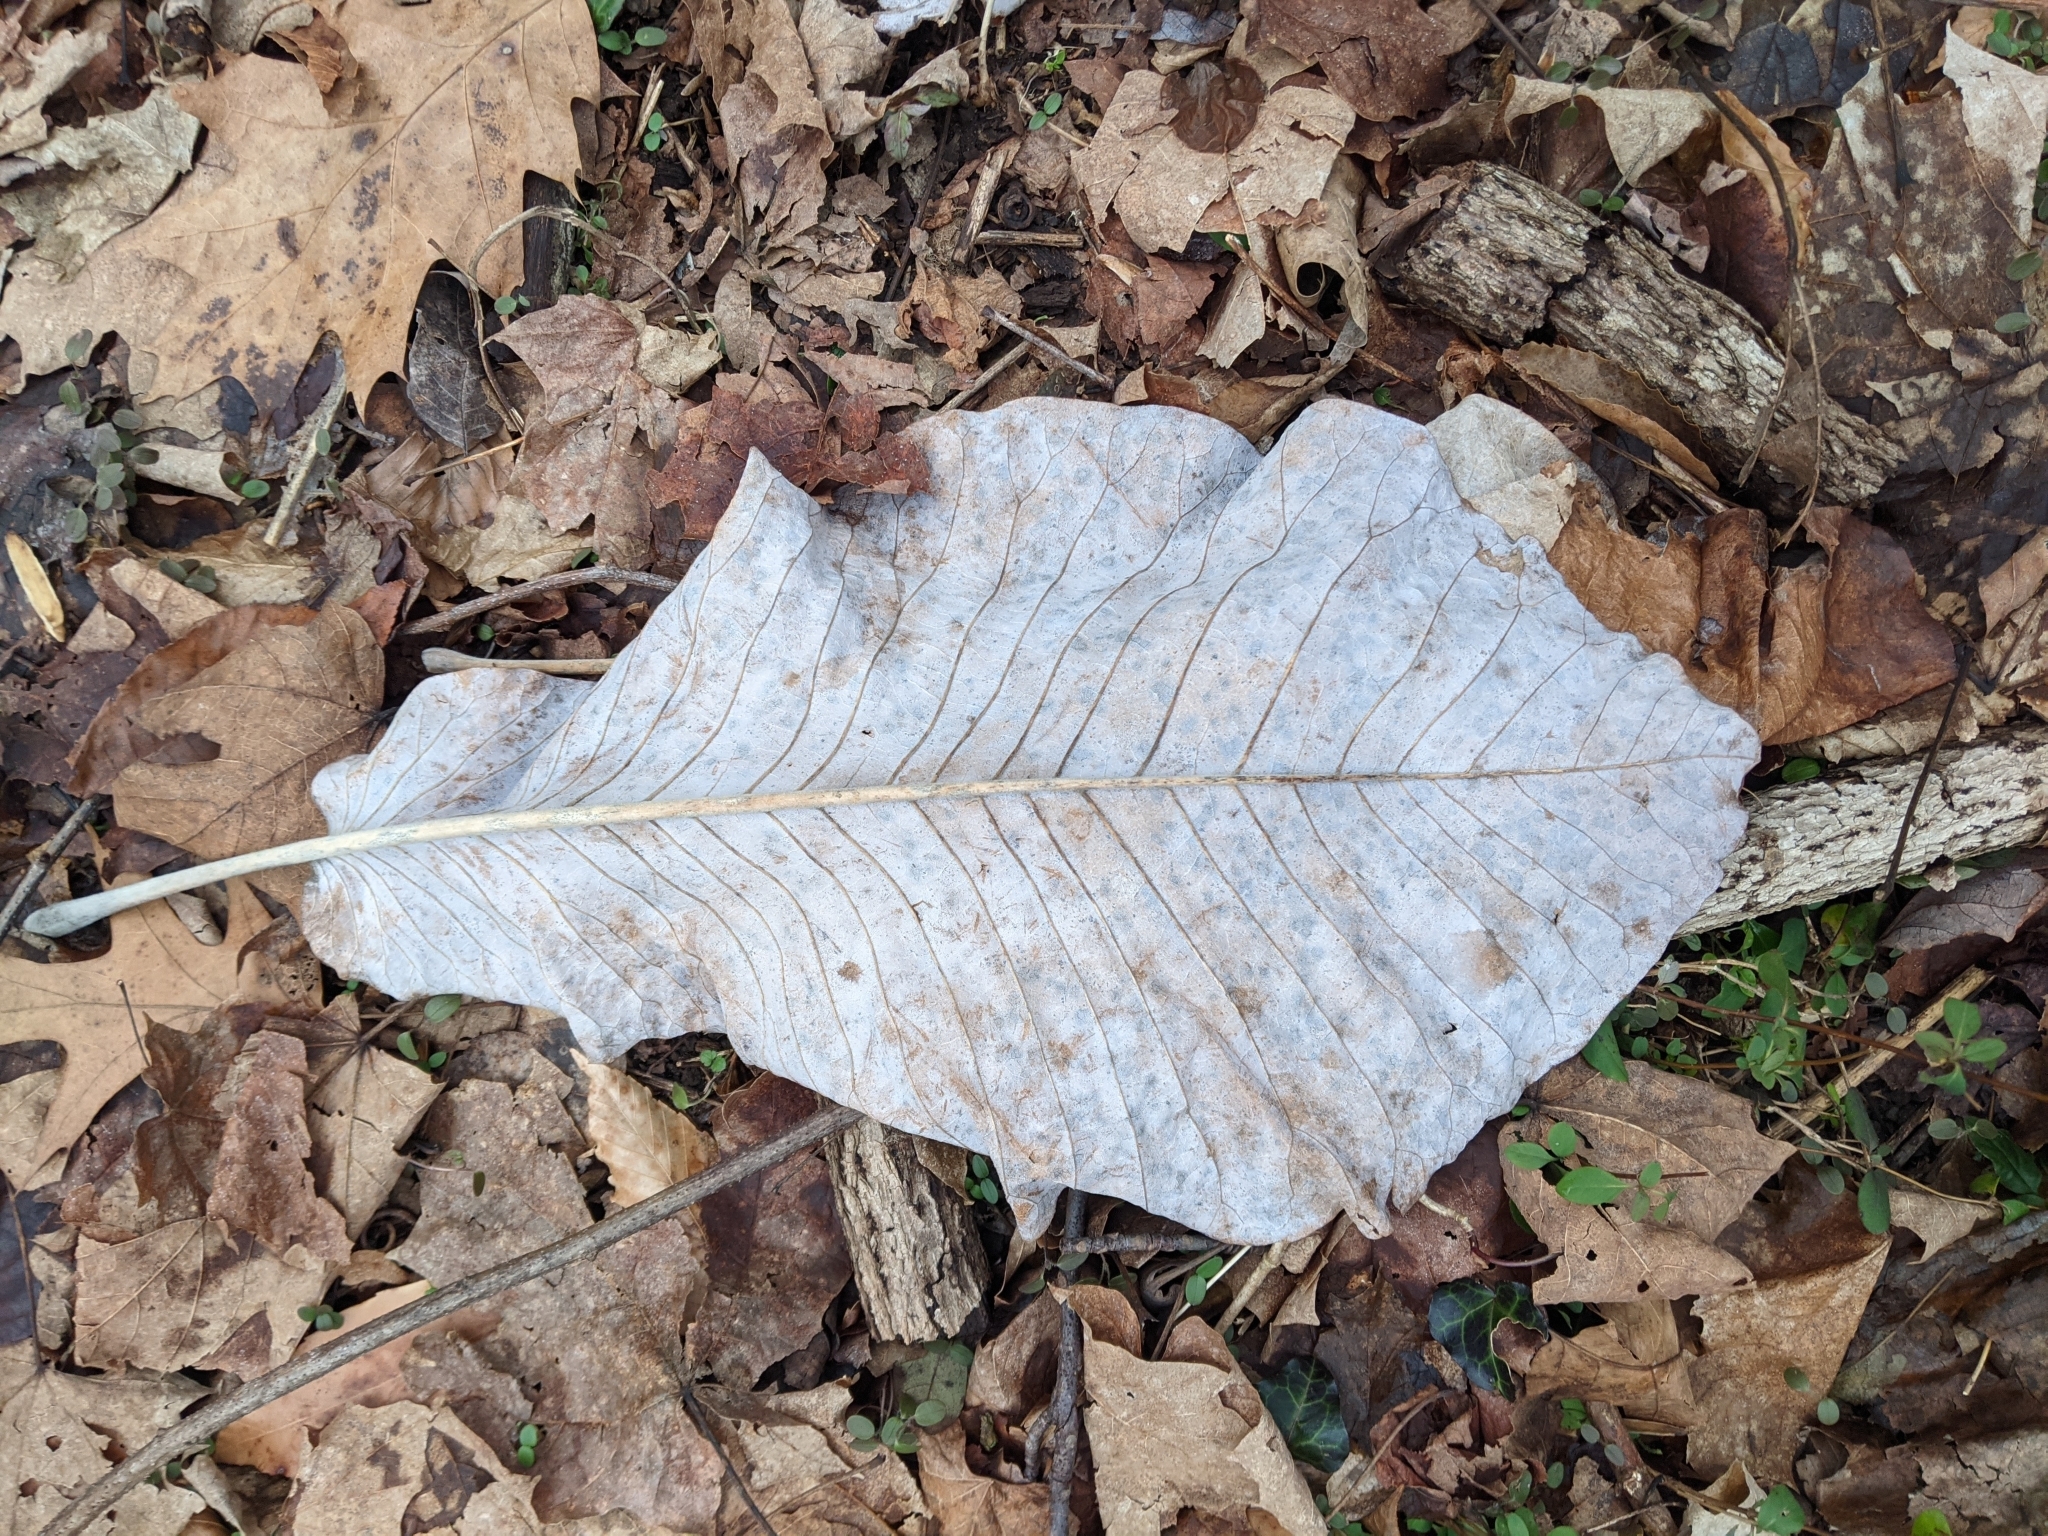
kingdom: Plantae
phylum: Tracheophyta
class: Magnoliopsida
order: Magnoliales
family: Magnoliaceae
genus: Magnolia
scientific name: Magnolia macrophylla
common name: Big-leaf magnolia
